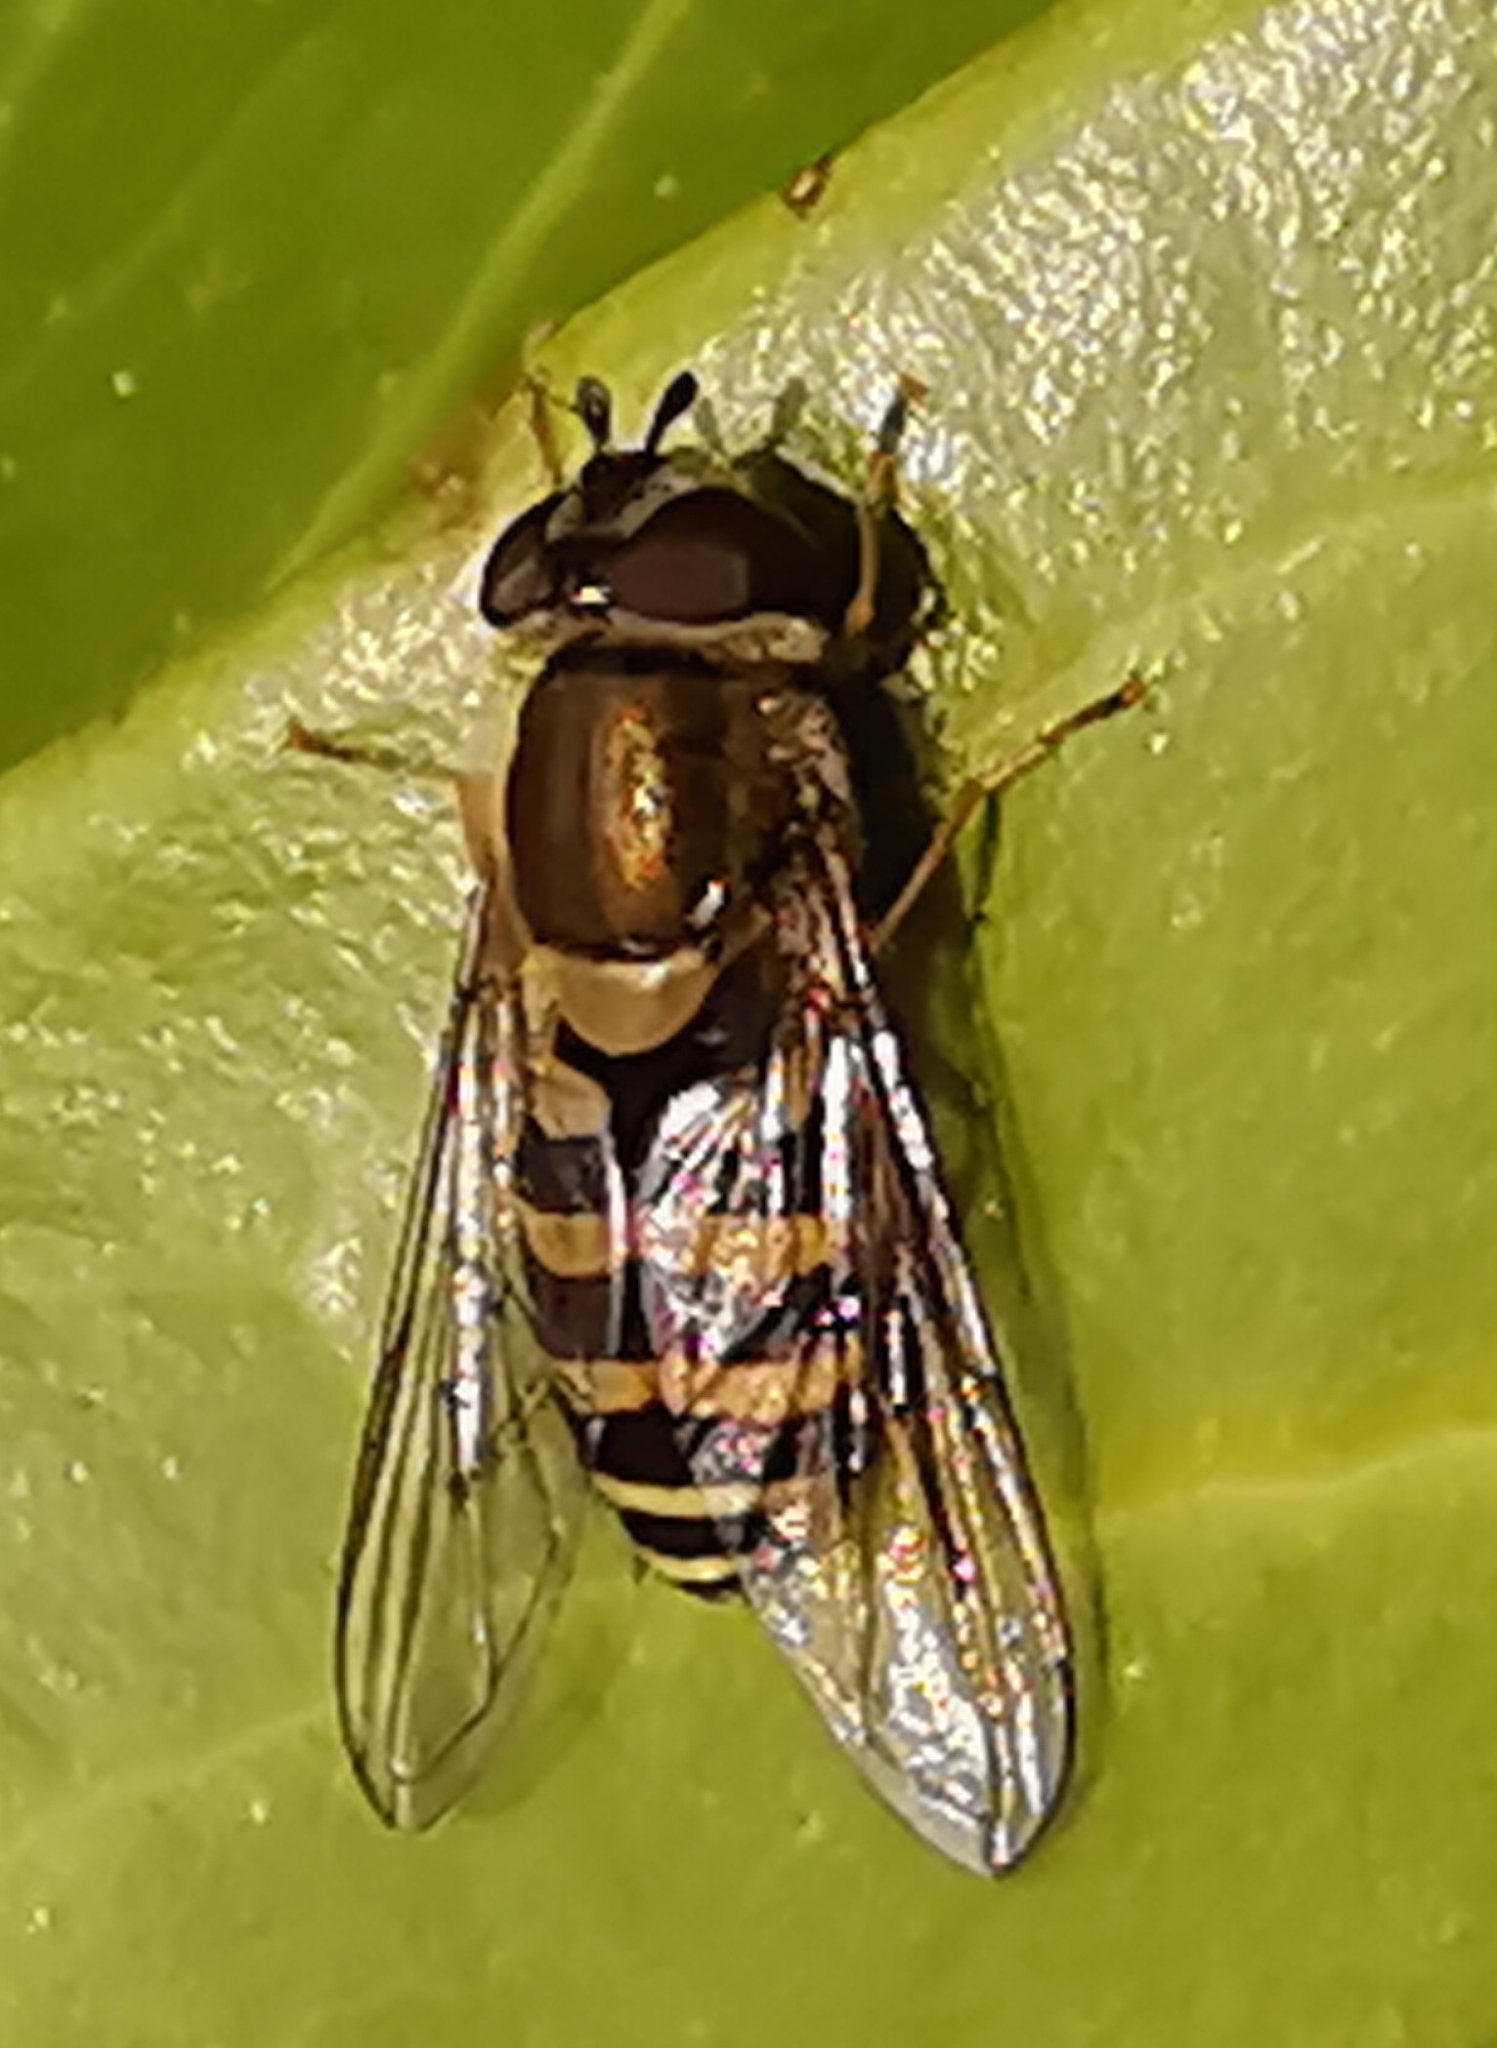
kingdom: Animalia
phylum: Arthropoda
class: Insecta
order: Diptera
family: Syrphidae
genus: Syrphus
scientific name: Syrphus
